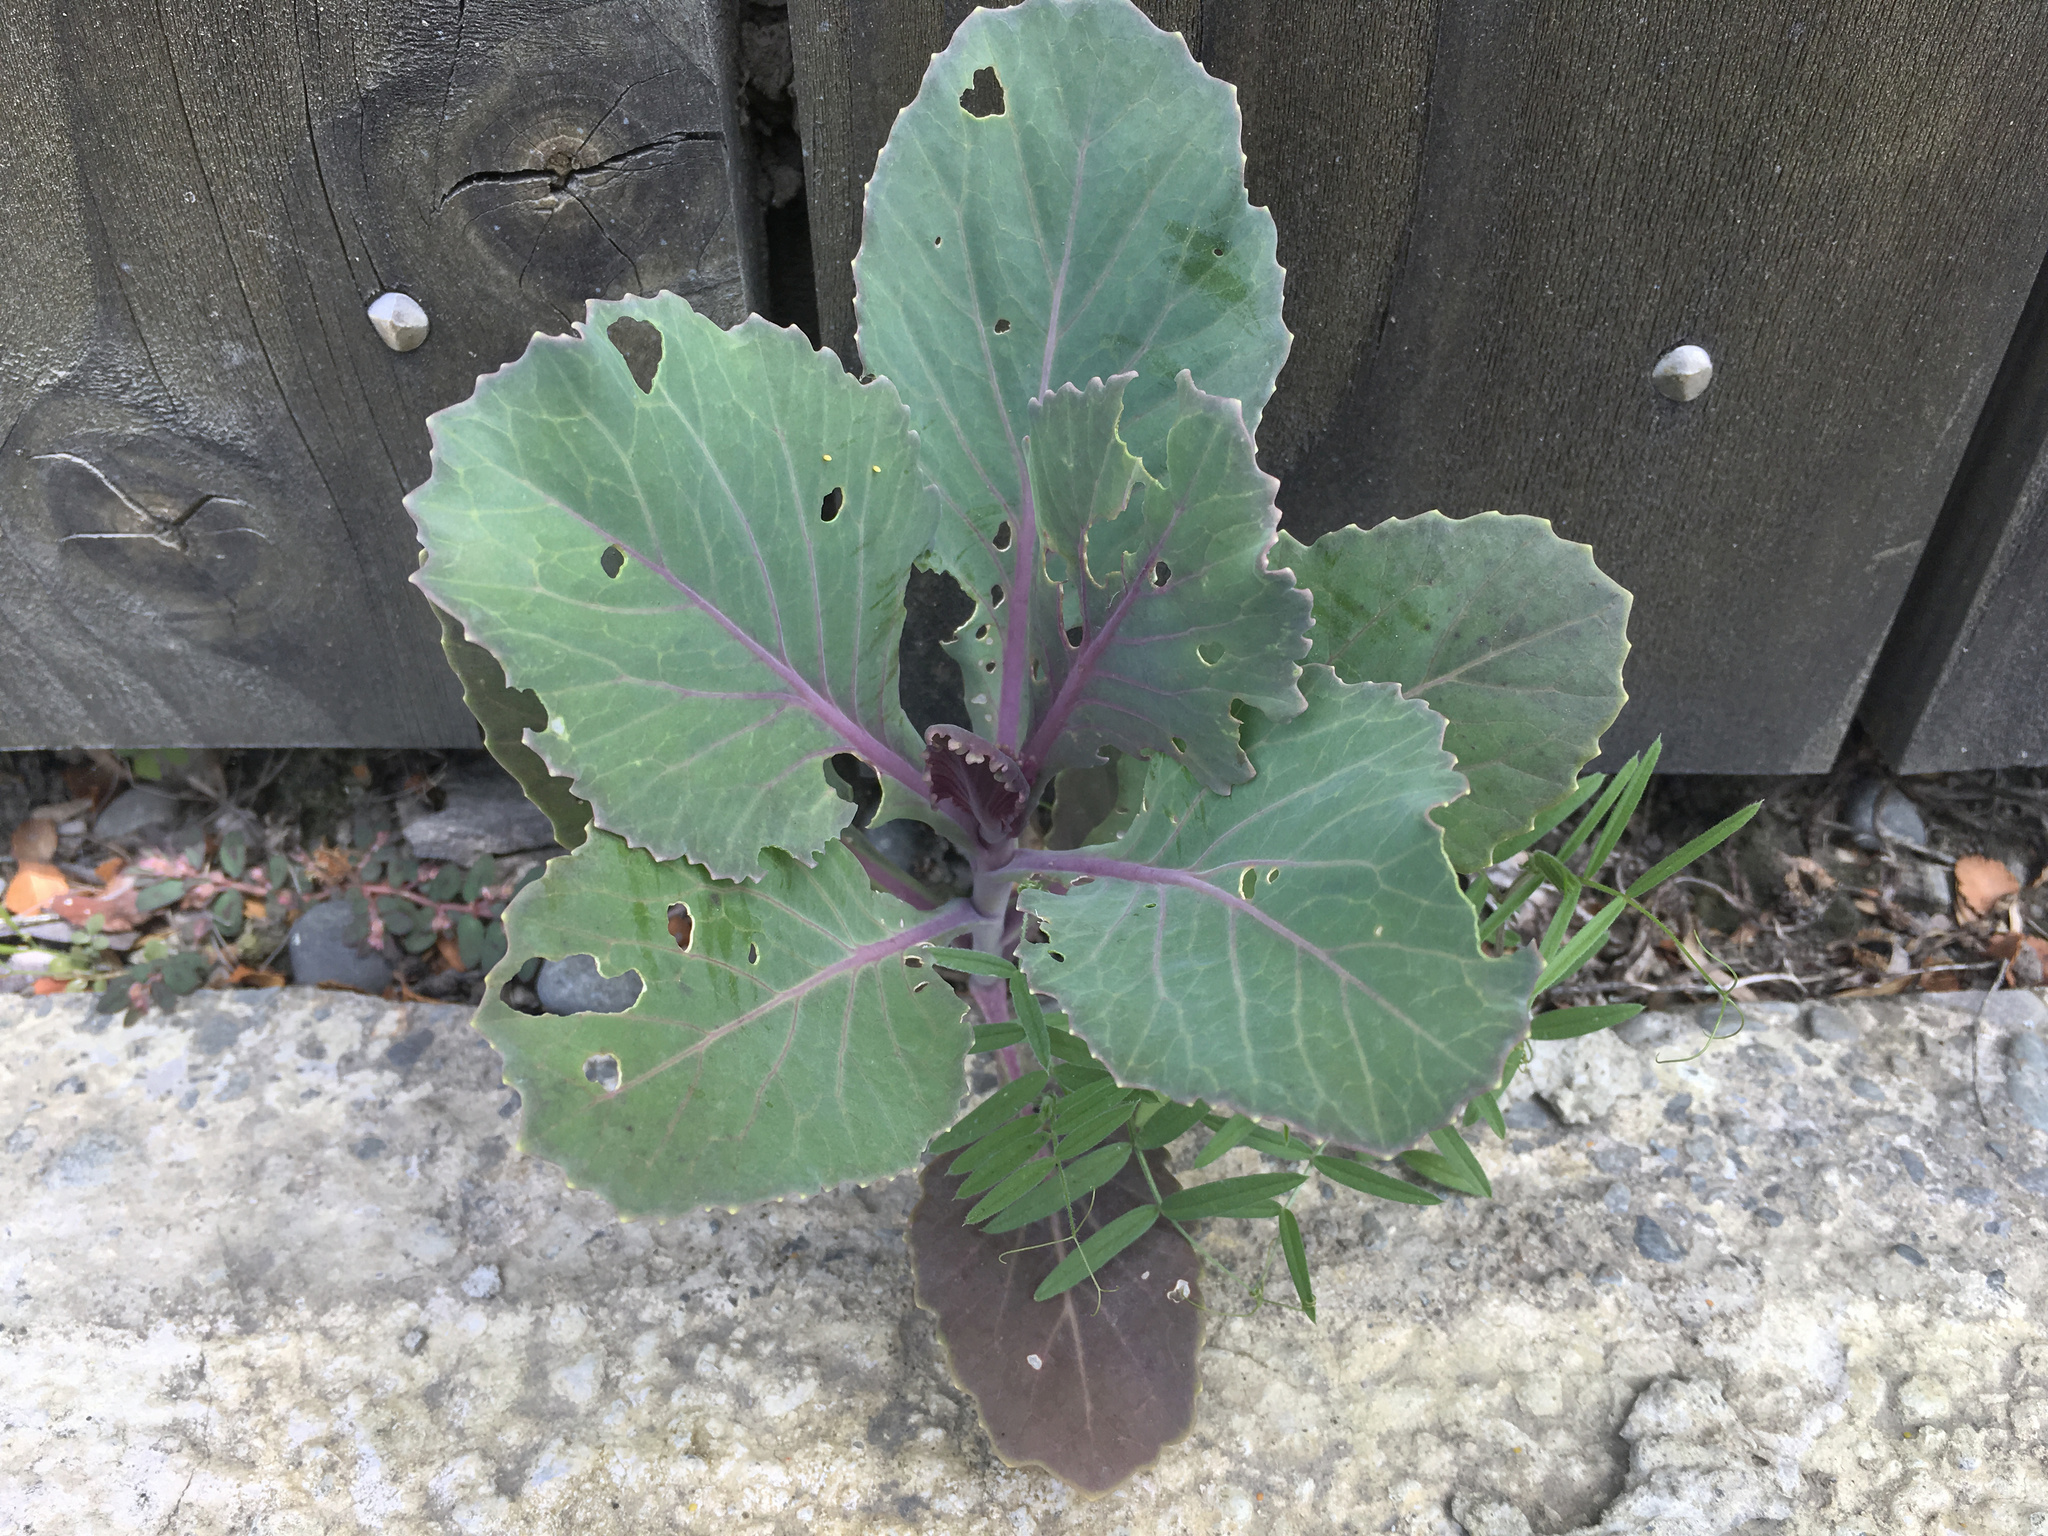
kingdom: Plantae
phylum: Tracheophyta
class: Magnoliopsida
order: Brassicales
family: Brassicaceae
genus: Brassica
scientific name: Brassica oleracea
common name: Cabbage
